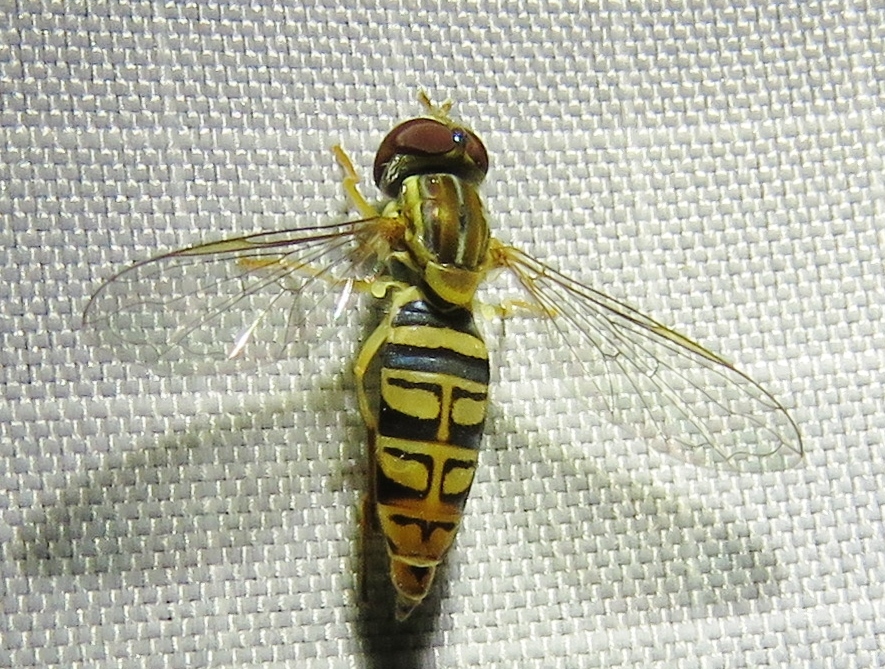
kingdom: Animalia
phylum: Arthropoda
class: Insecta
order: Diptera
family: Syrphidae
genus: Toxomerus
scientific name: Toxomerus politus
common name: Maize calligrapher
